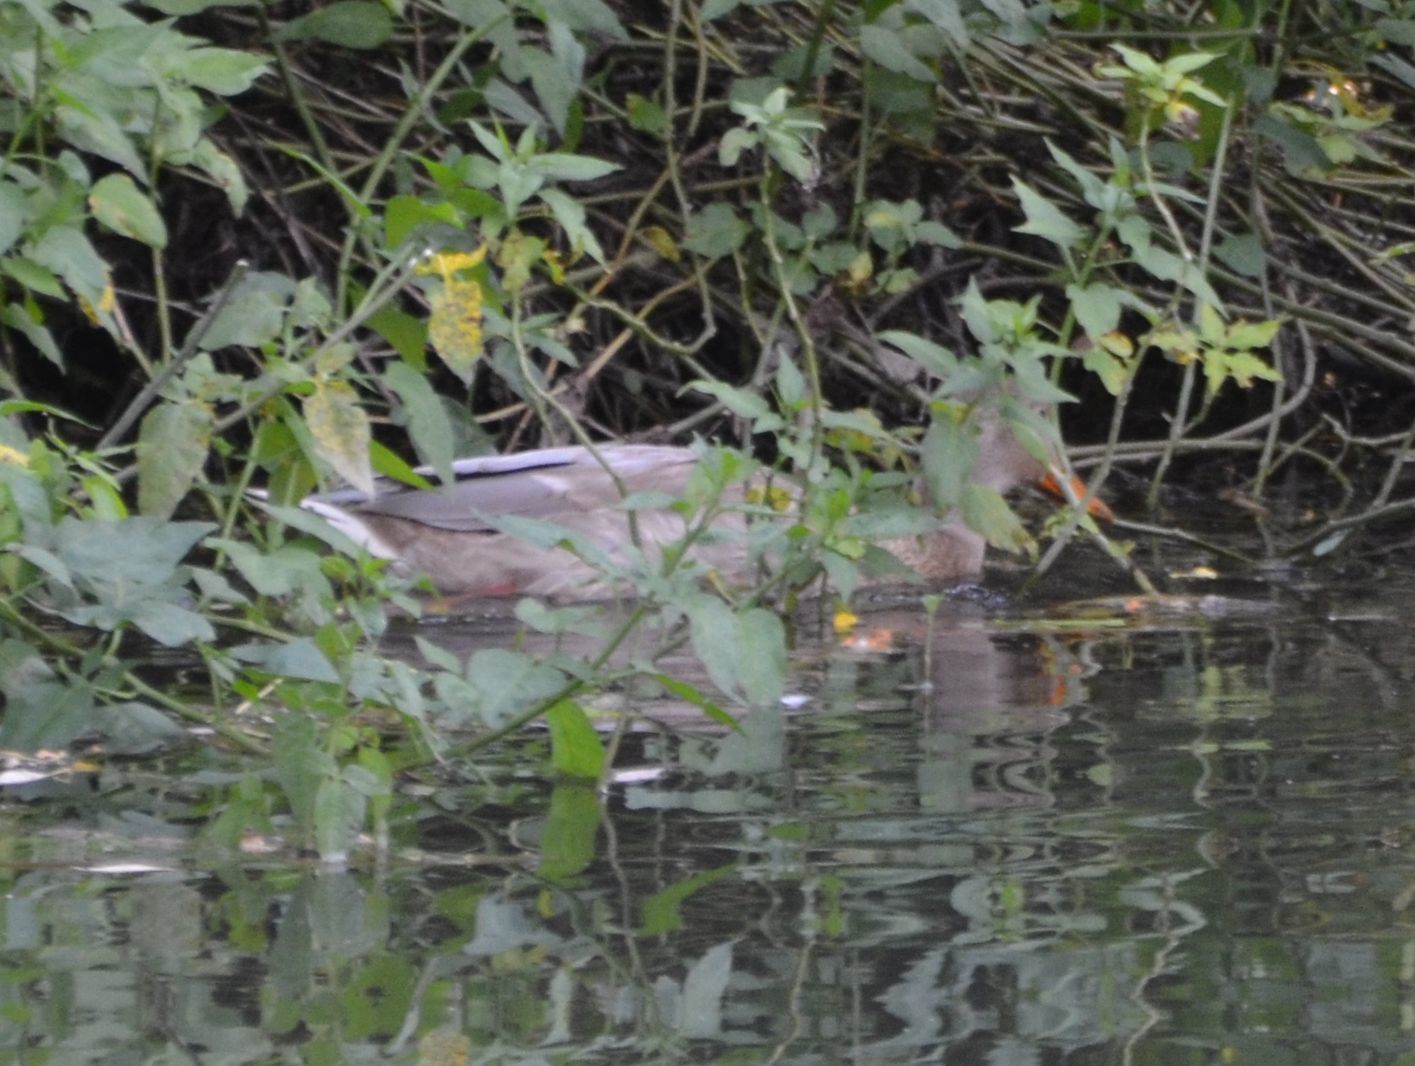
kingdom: Animalia
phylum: Chordata
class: Aves
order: Anseriformes
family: Anatidae
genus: Anas
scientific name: Anas platyrhynchos
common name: Mallard
